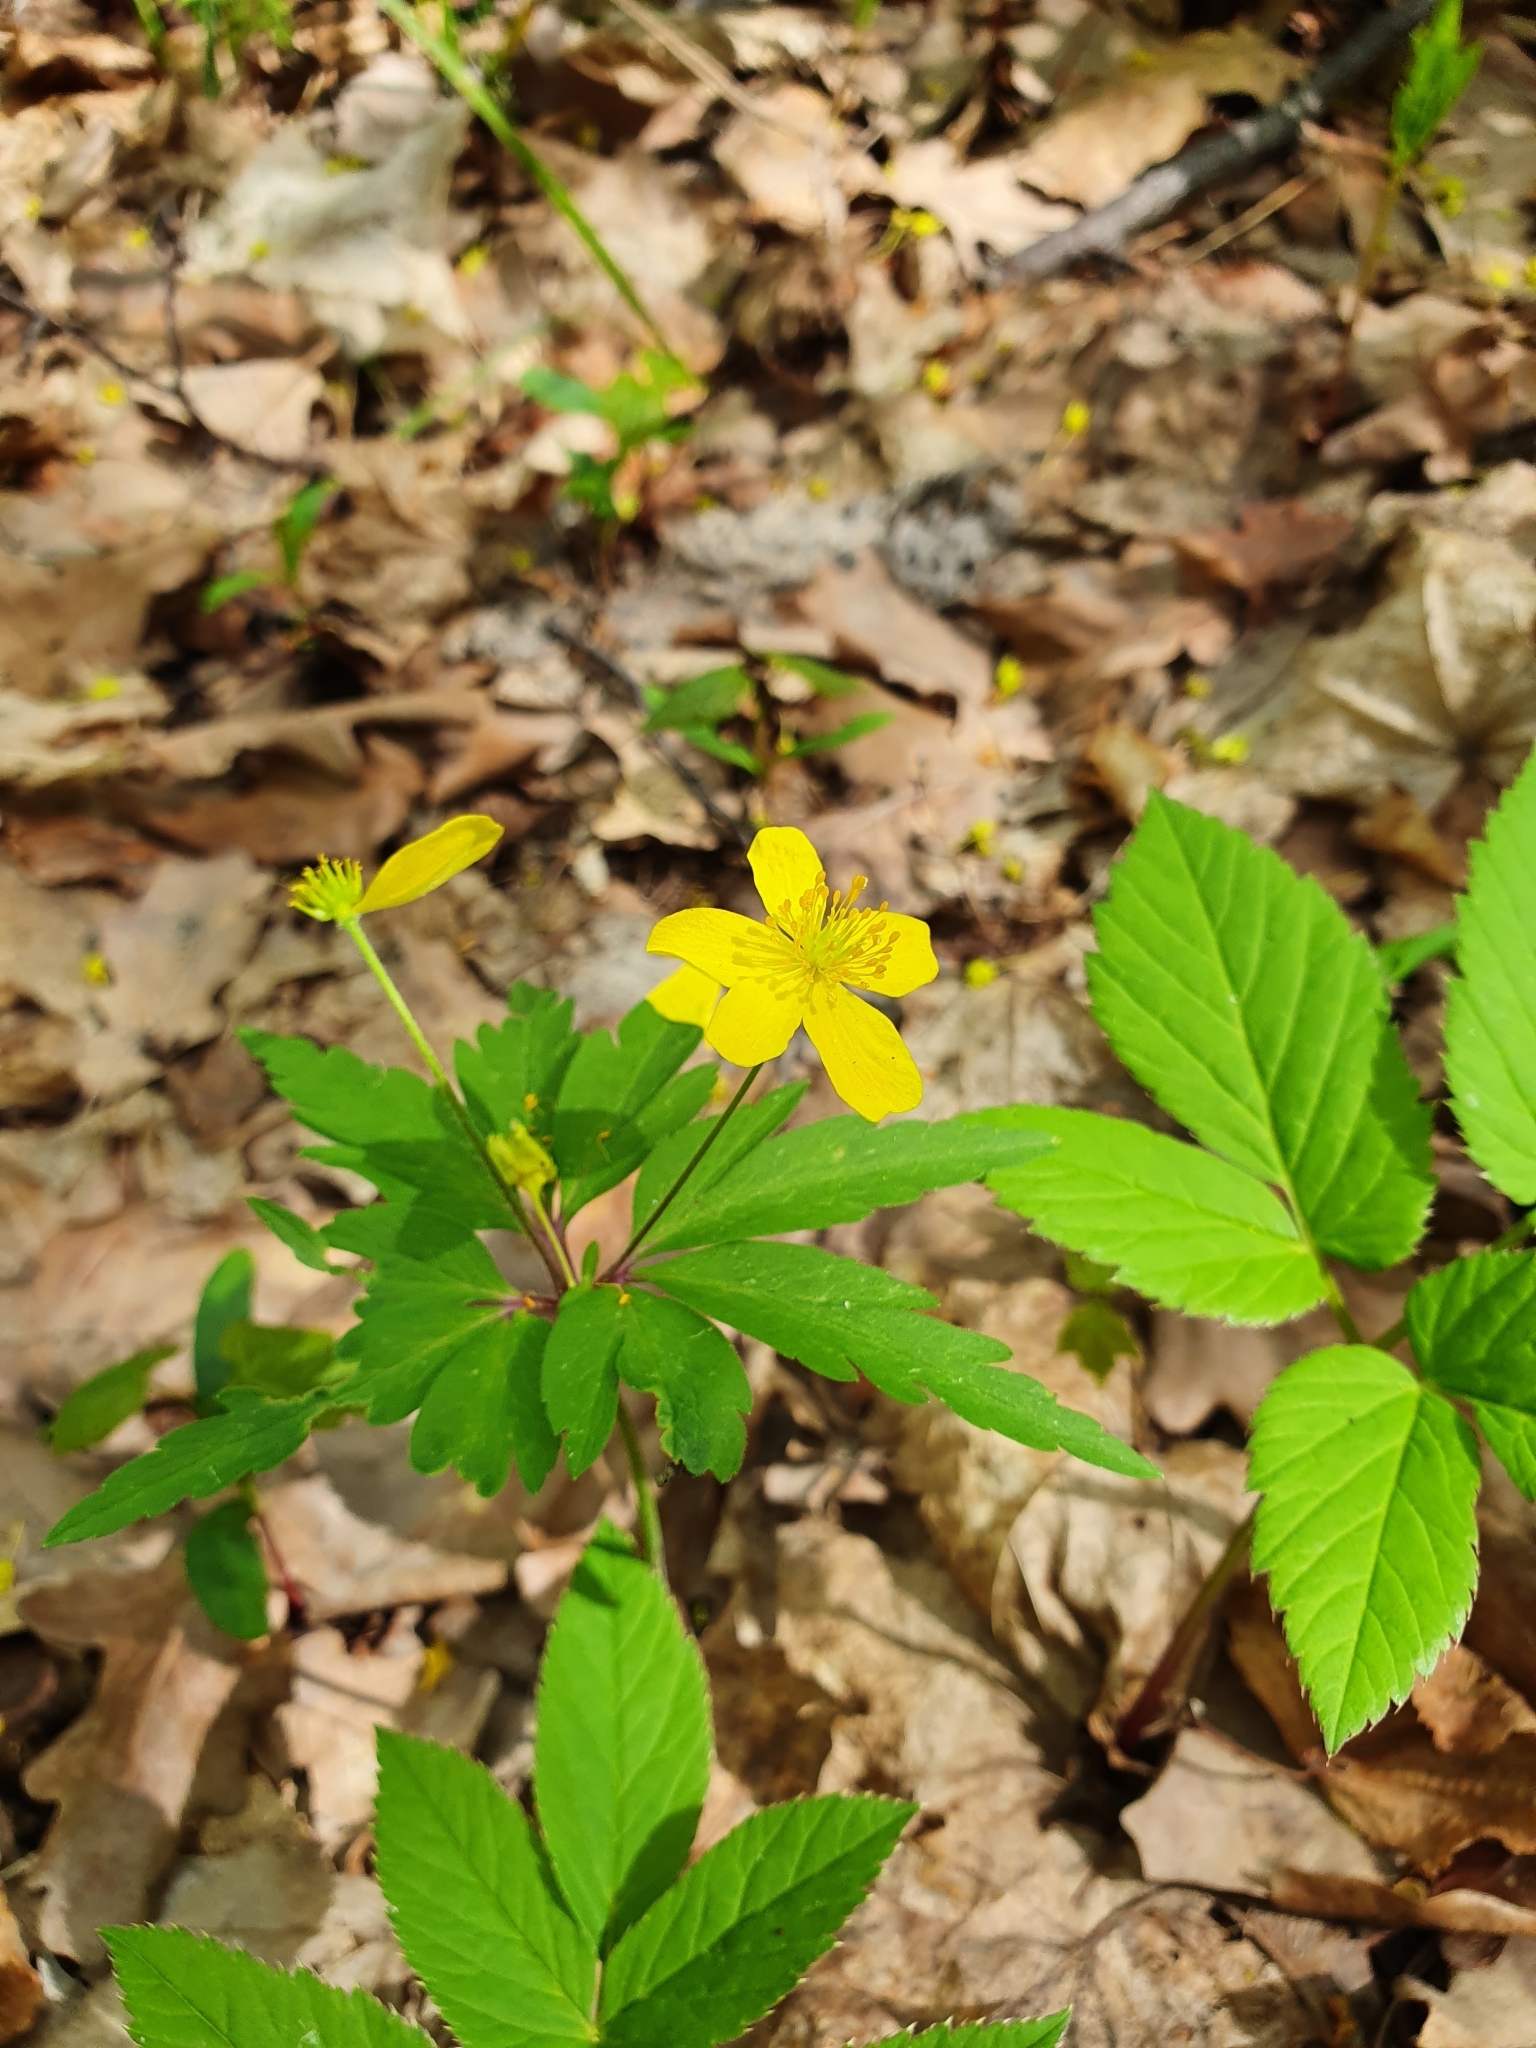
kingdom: Plantae
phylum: Tracheophyta
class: Magnoliopsida
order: Ranunculales
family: Ranunculaceae
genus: Anemone
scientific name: Anemone ranunculoides
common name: Yellow anemone
